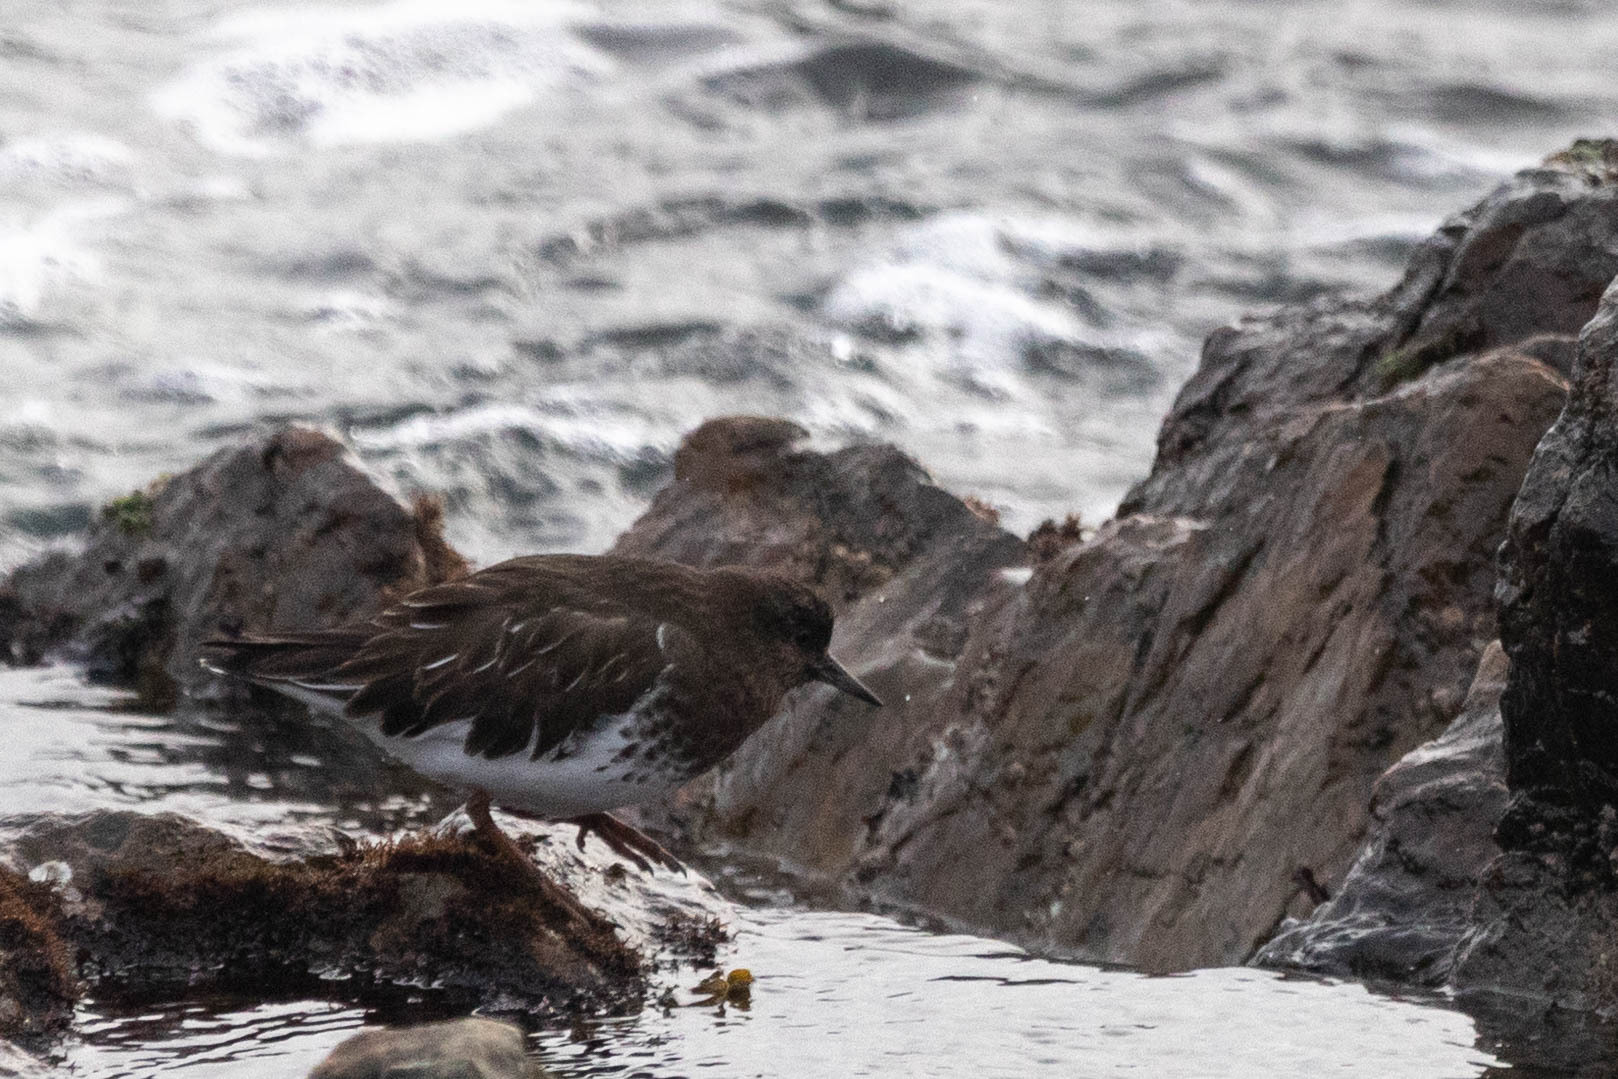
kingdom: Animalia
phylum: Chordata
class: Aves
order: Charadriiformes
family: Scolopacidae
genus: Arenaria
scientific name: Arenaria melanocephala
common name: Black turnstone
